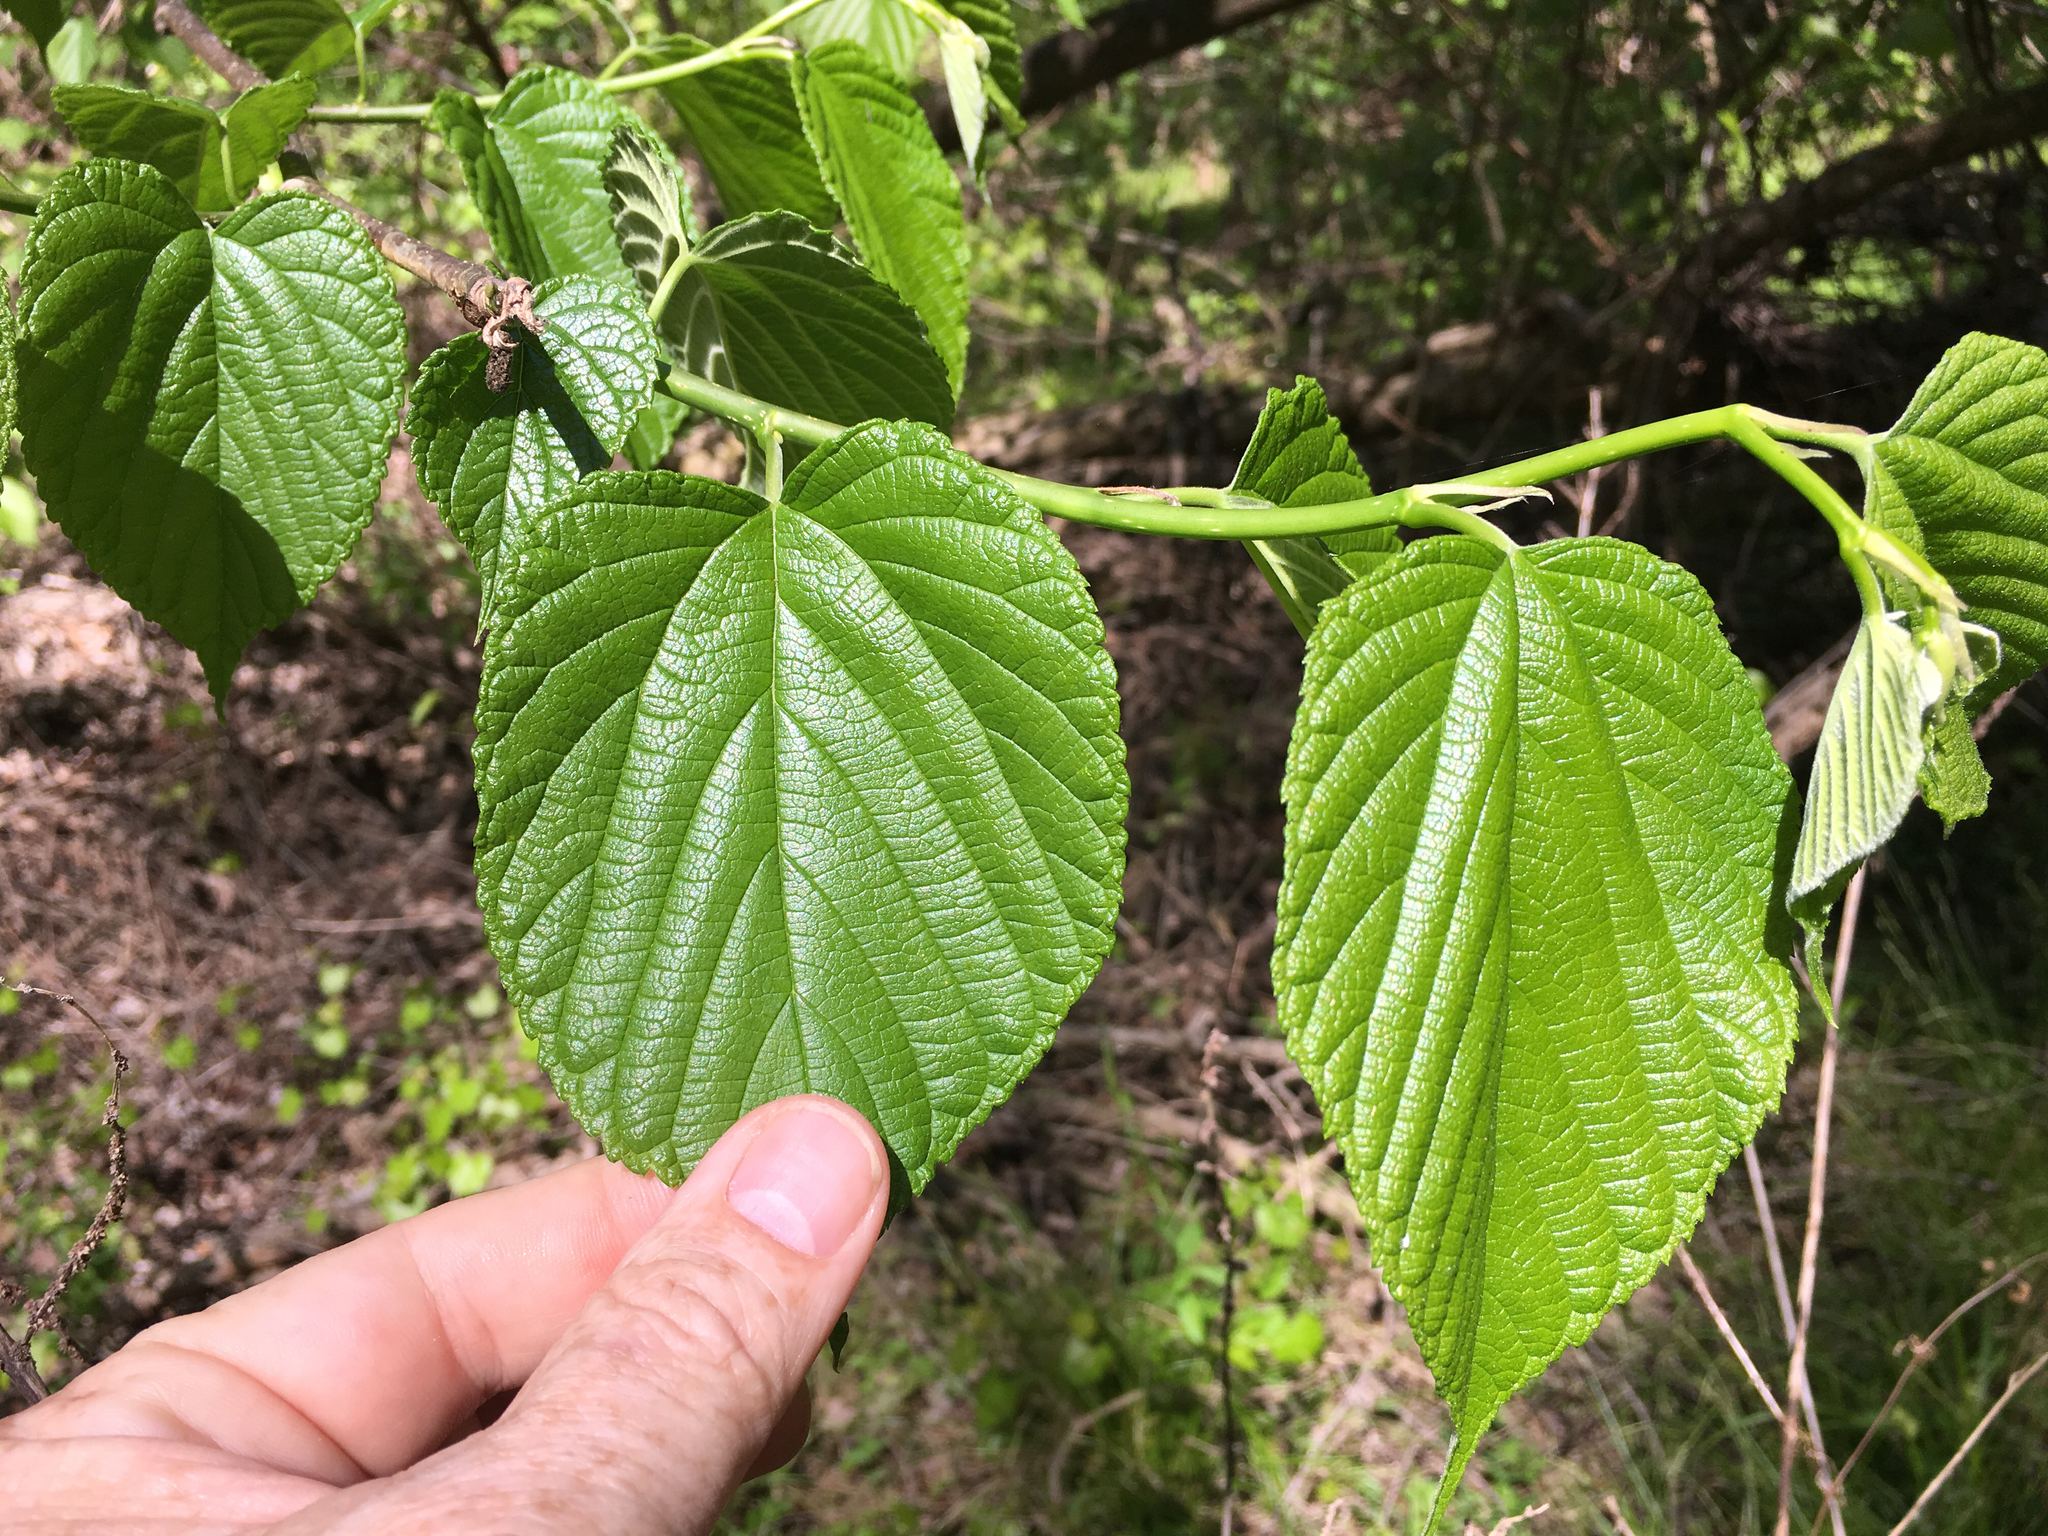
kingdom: Plantae
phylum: Tracheophyta
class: Magnoliopsida
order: Rosales
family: Moraceae
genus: Morus
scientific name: Morus rubra
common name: Red mulberry
